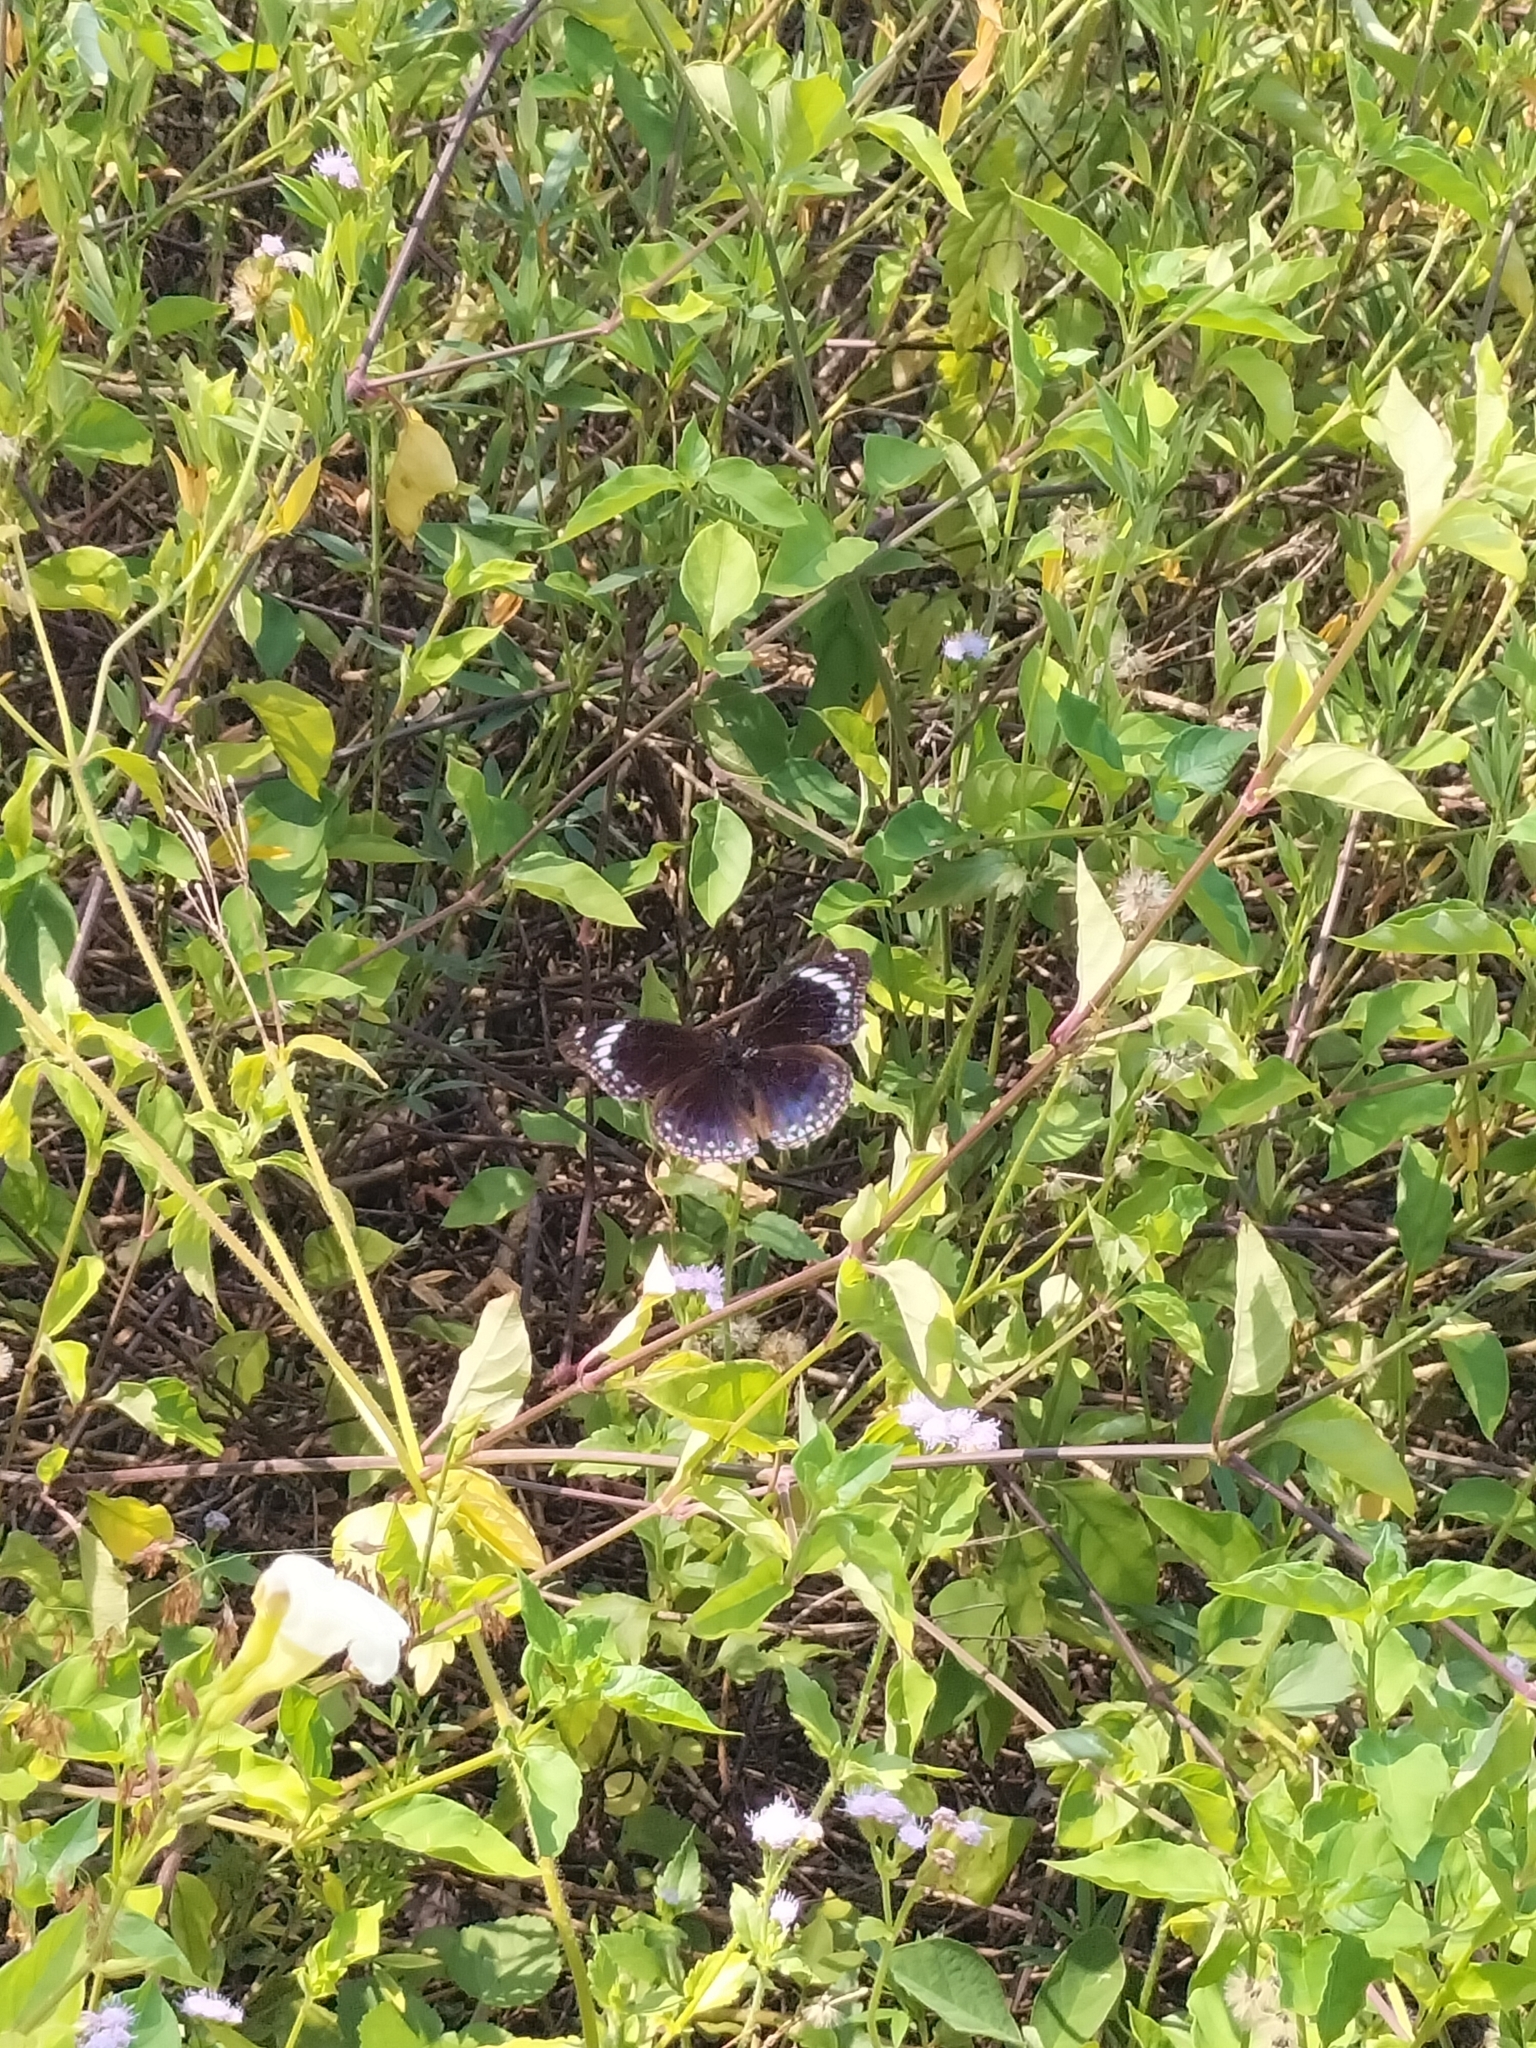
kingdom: Animalia
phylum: Arthropoda
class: Insecta
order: Lepidoptera
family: Nymphalidae
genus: Hypolimnas
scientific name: Hypolimnas alimena
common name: Blue-banded eggfly
